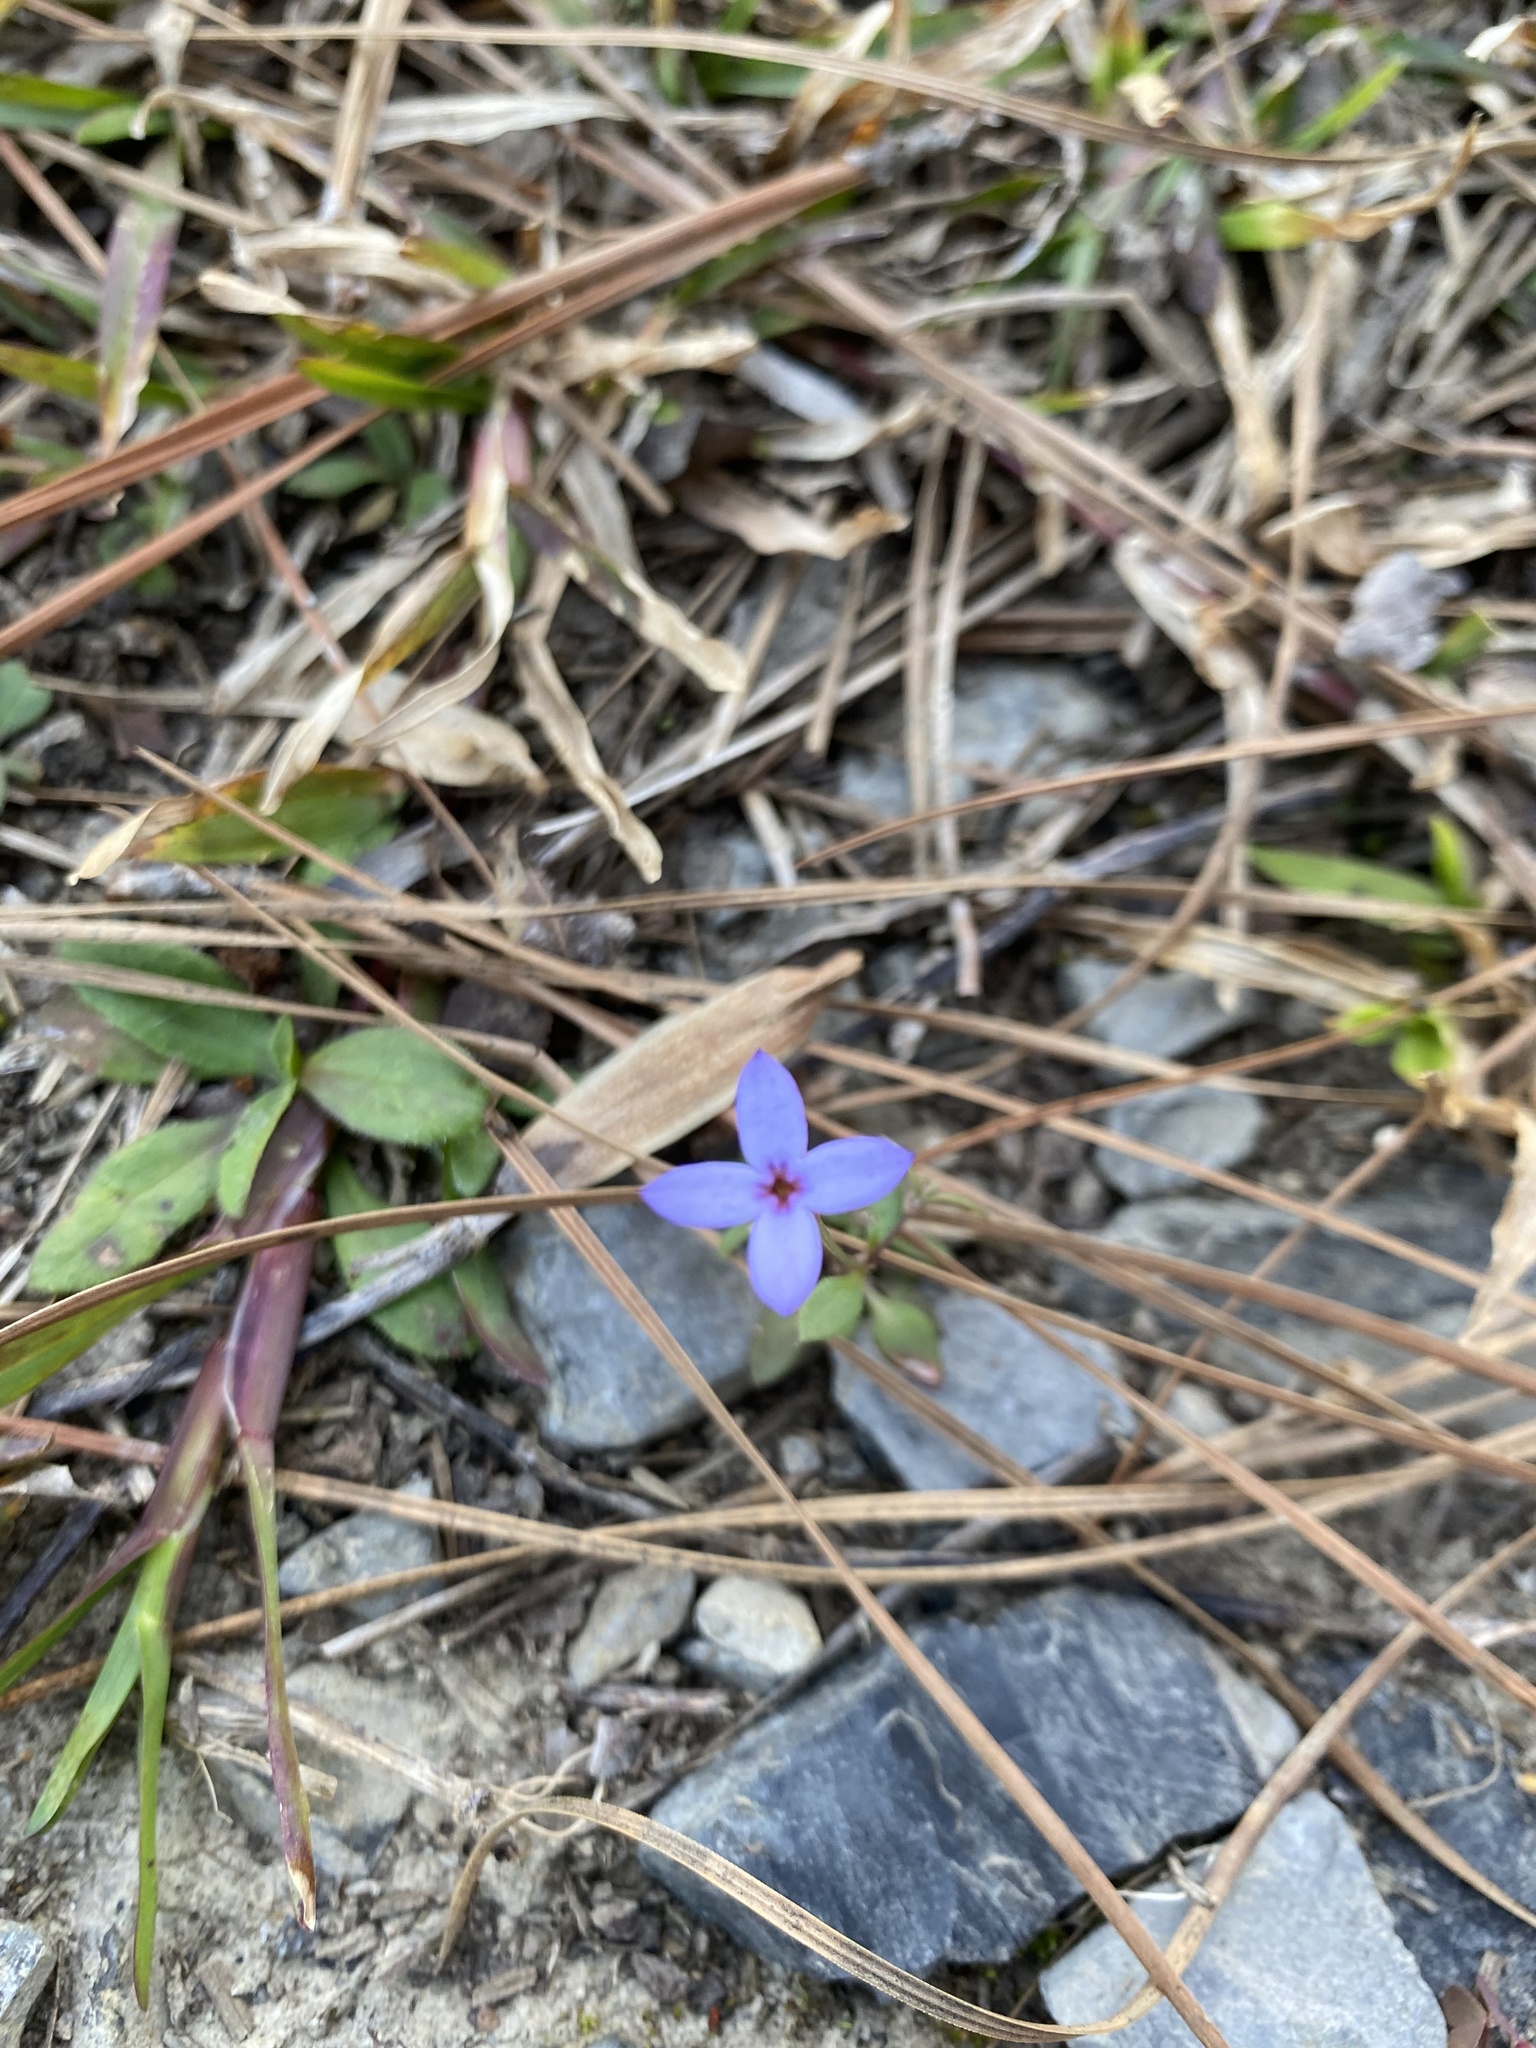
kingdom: Plantae
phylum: Tracheophyta
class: Magnoliopsida
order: Gentianales
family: Rubiaceae
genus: Houstonia
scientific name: Houstonia pusilla
